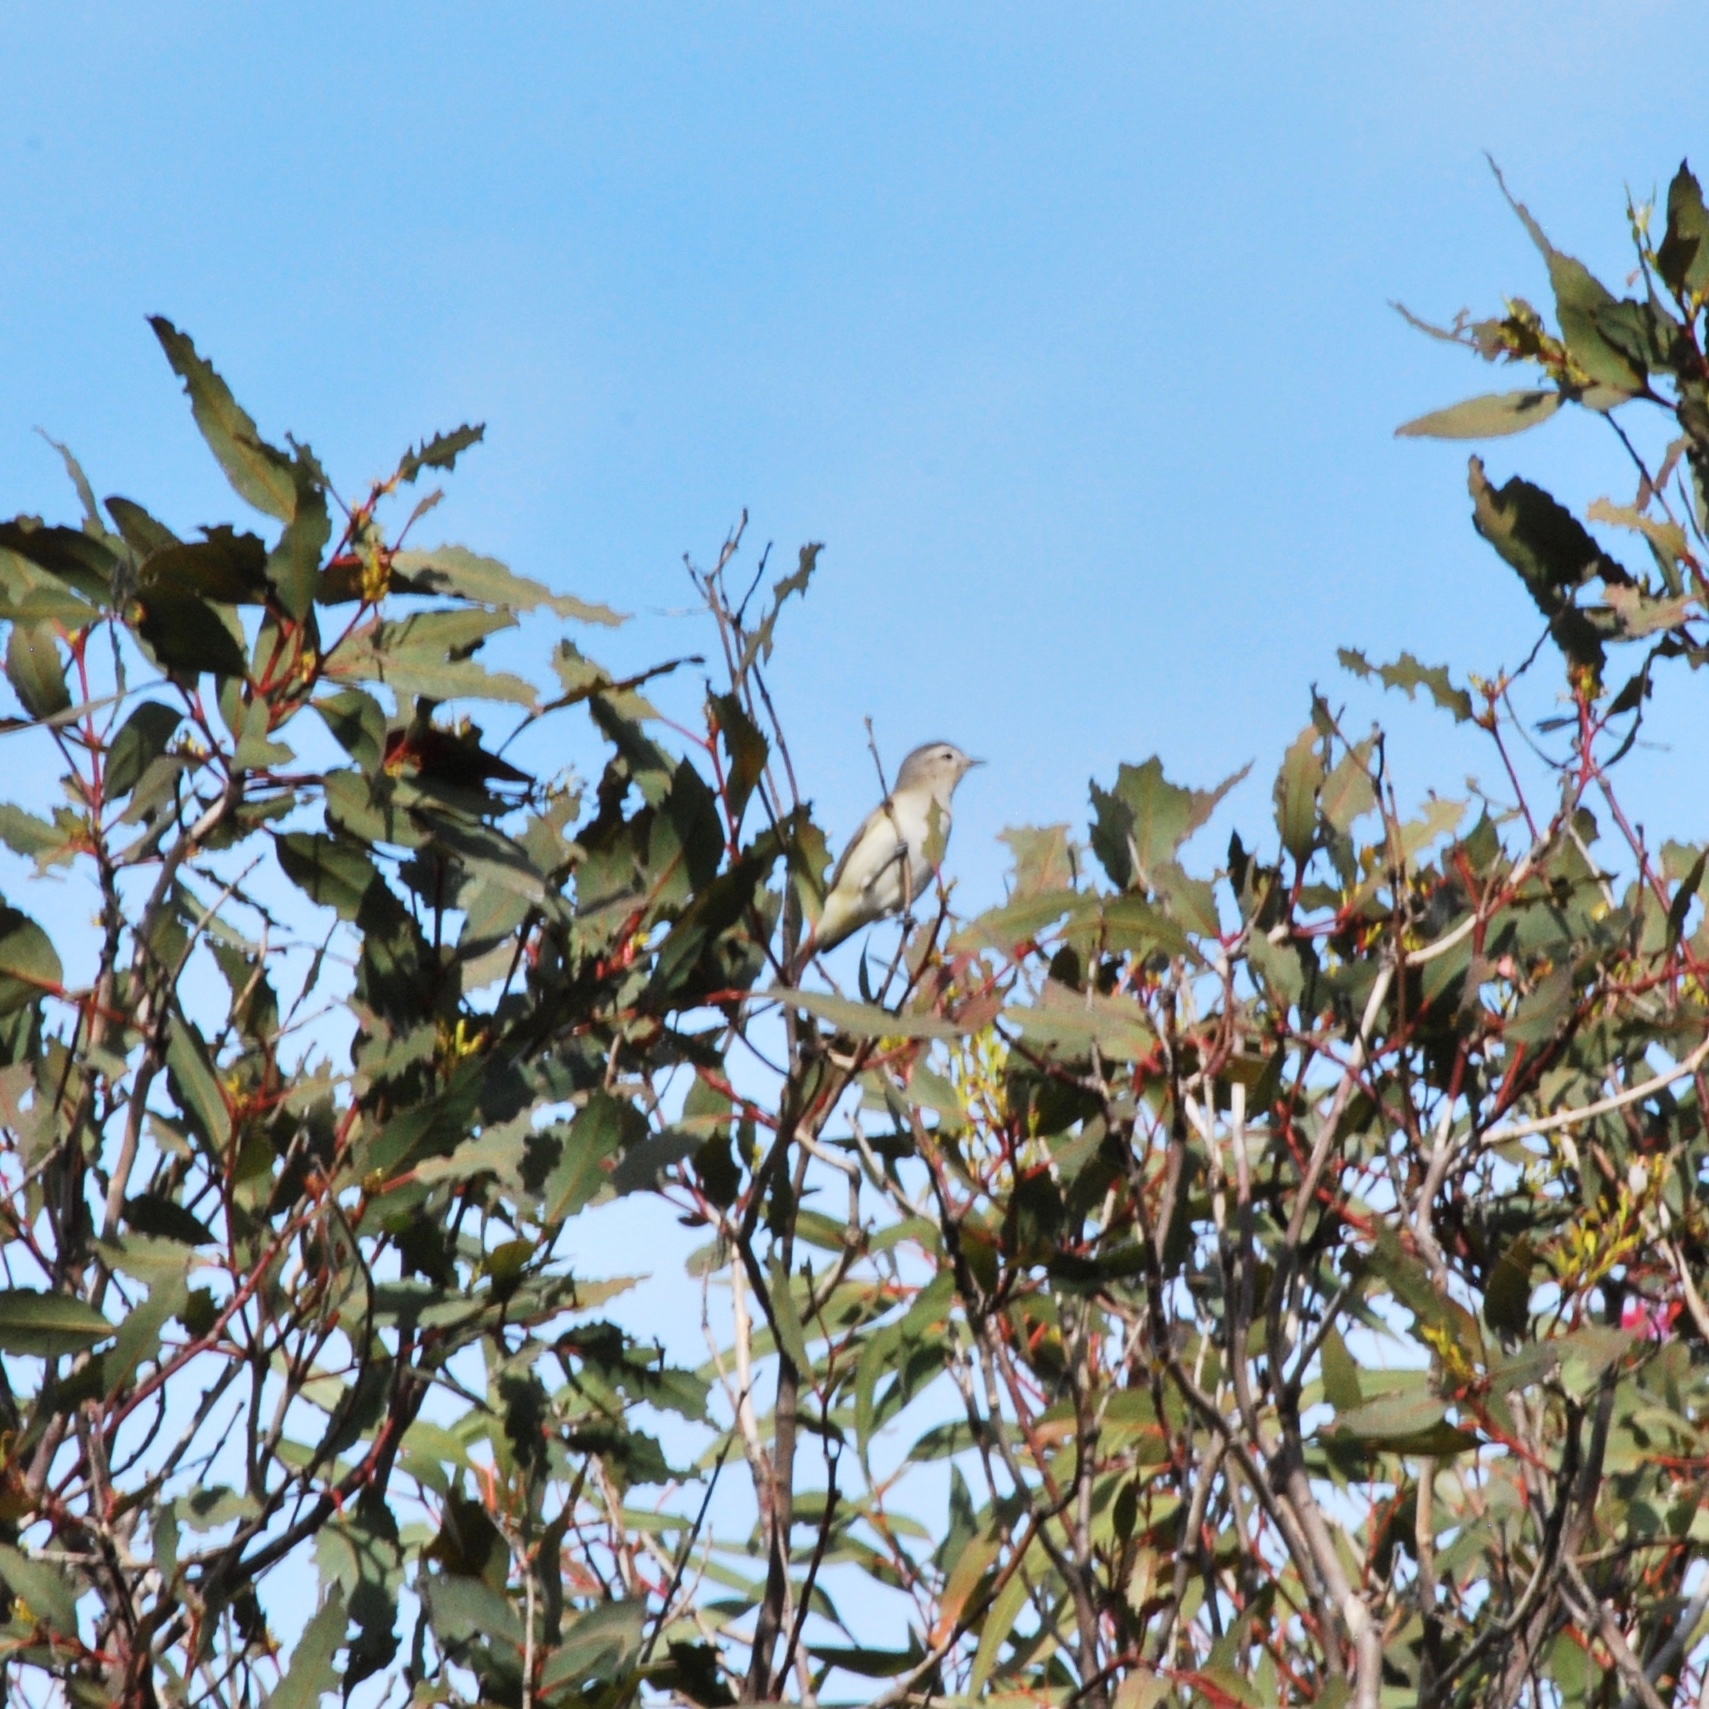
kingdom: Animalia
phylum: Chordata
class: Aves
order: Passeriformes
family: Vireonidae
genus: Vireo
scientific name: Vireo gilvus
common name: Warbling vireo
